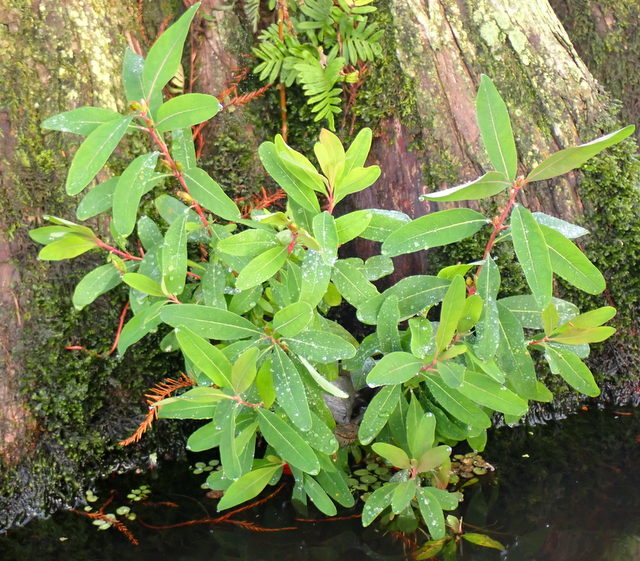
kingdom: Plantae
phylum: Tracheophyta
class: Magnoliopsida
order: Malpighiales
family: Hypericaceae
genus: Triadenum
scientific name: Triadenum walteri
